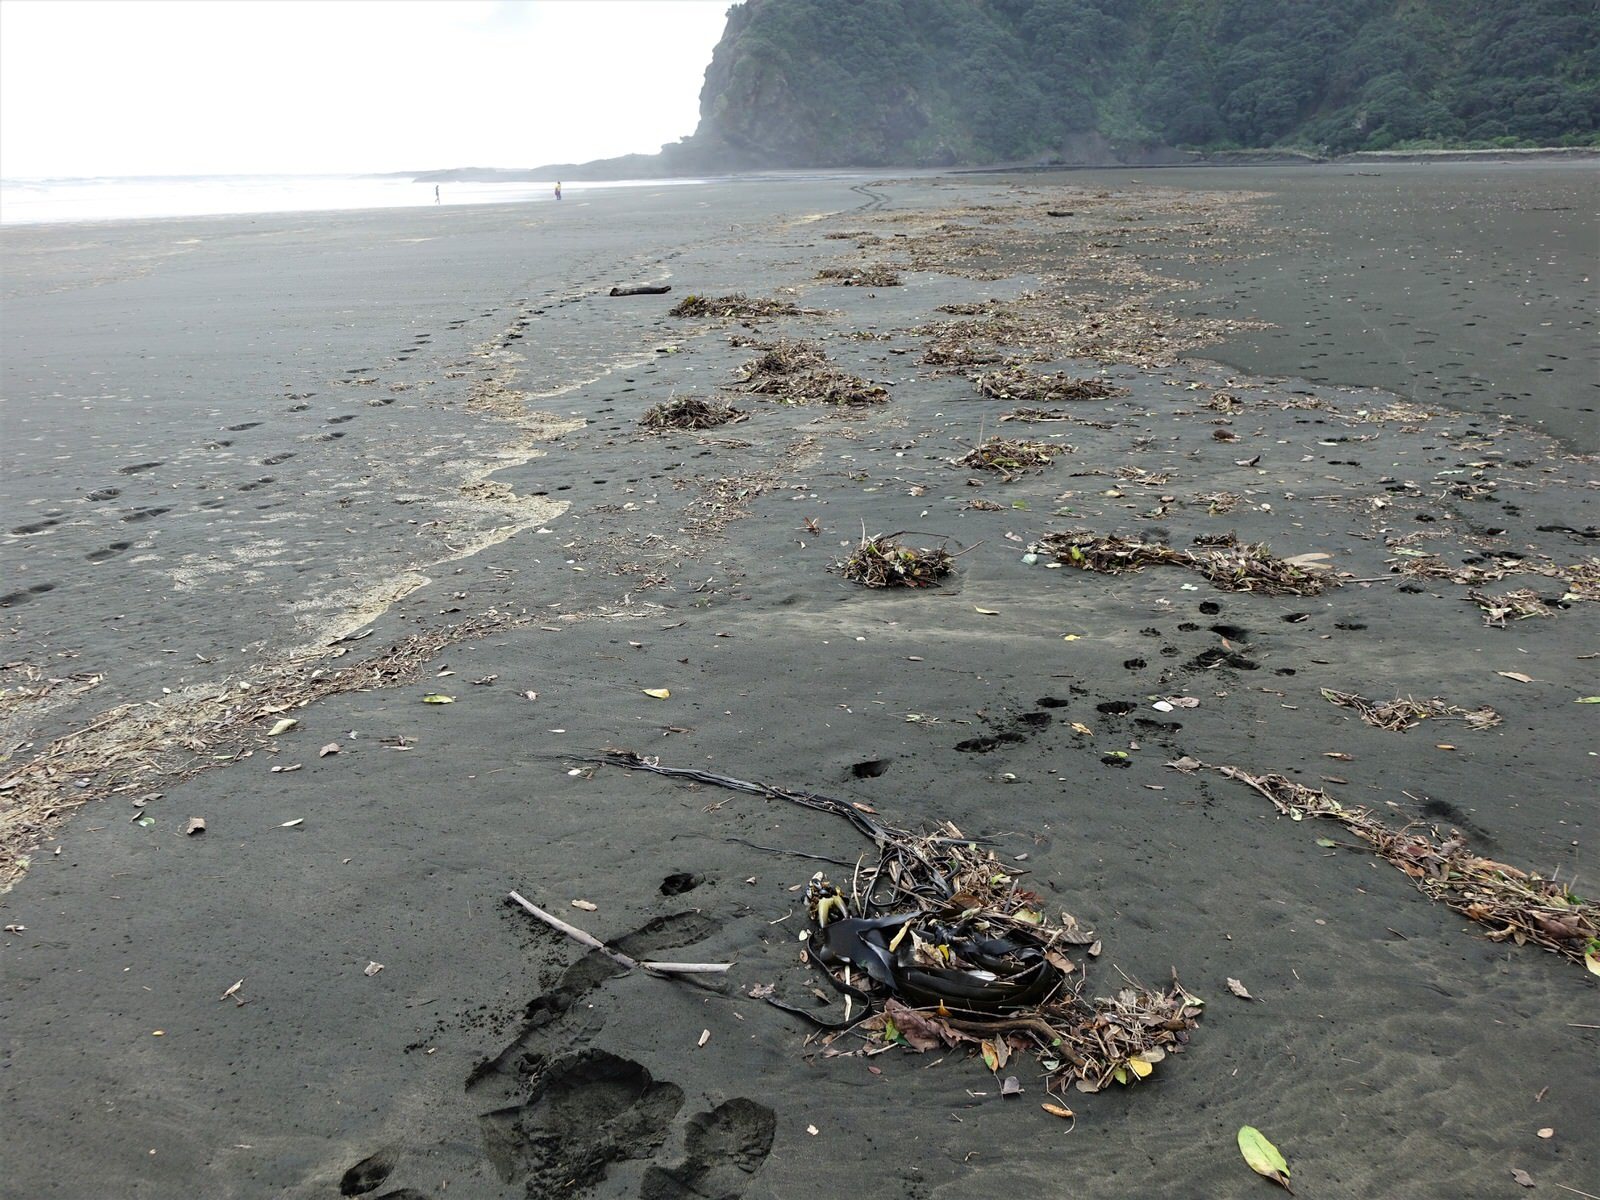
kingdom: Chromista
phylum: Ochrophyta
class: Phaeophyceae
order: Fucales
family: Durvillaeaceae
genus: Durvillaea
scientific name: Durvillaea antarctica
